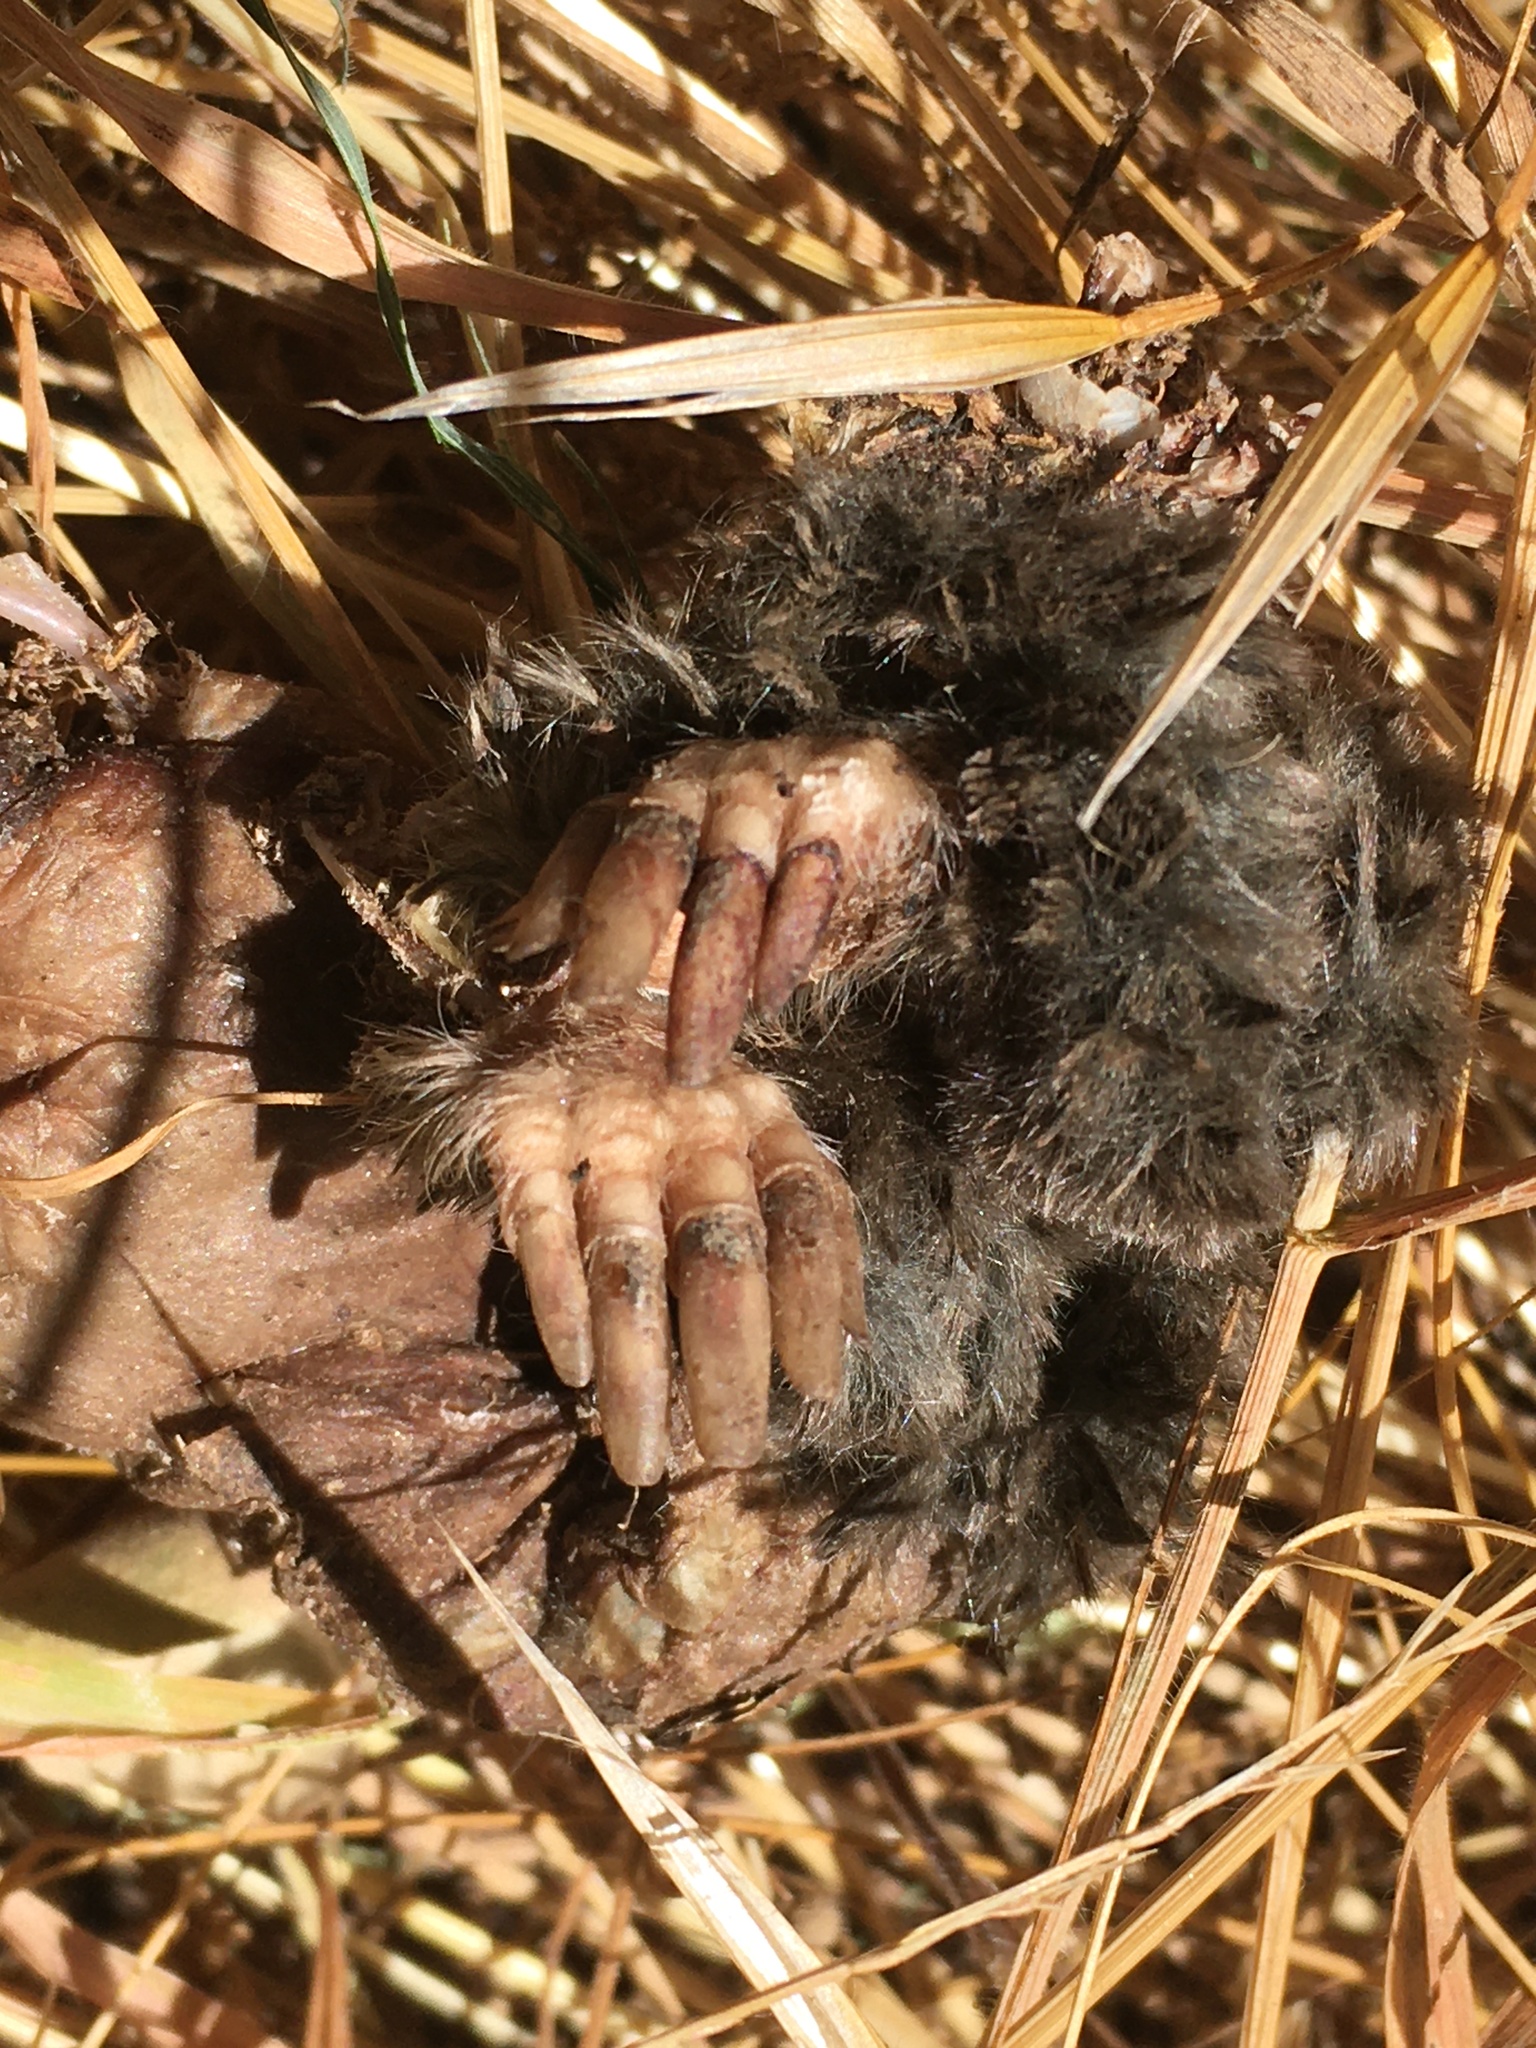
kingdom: Animalia
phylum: Chordata
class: Mammalia
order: Soricomorpha
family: Talpidae
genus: Scapanus
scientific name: Scapanus latimanus
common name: Broad-footed mole
